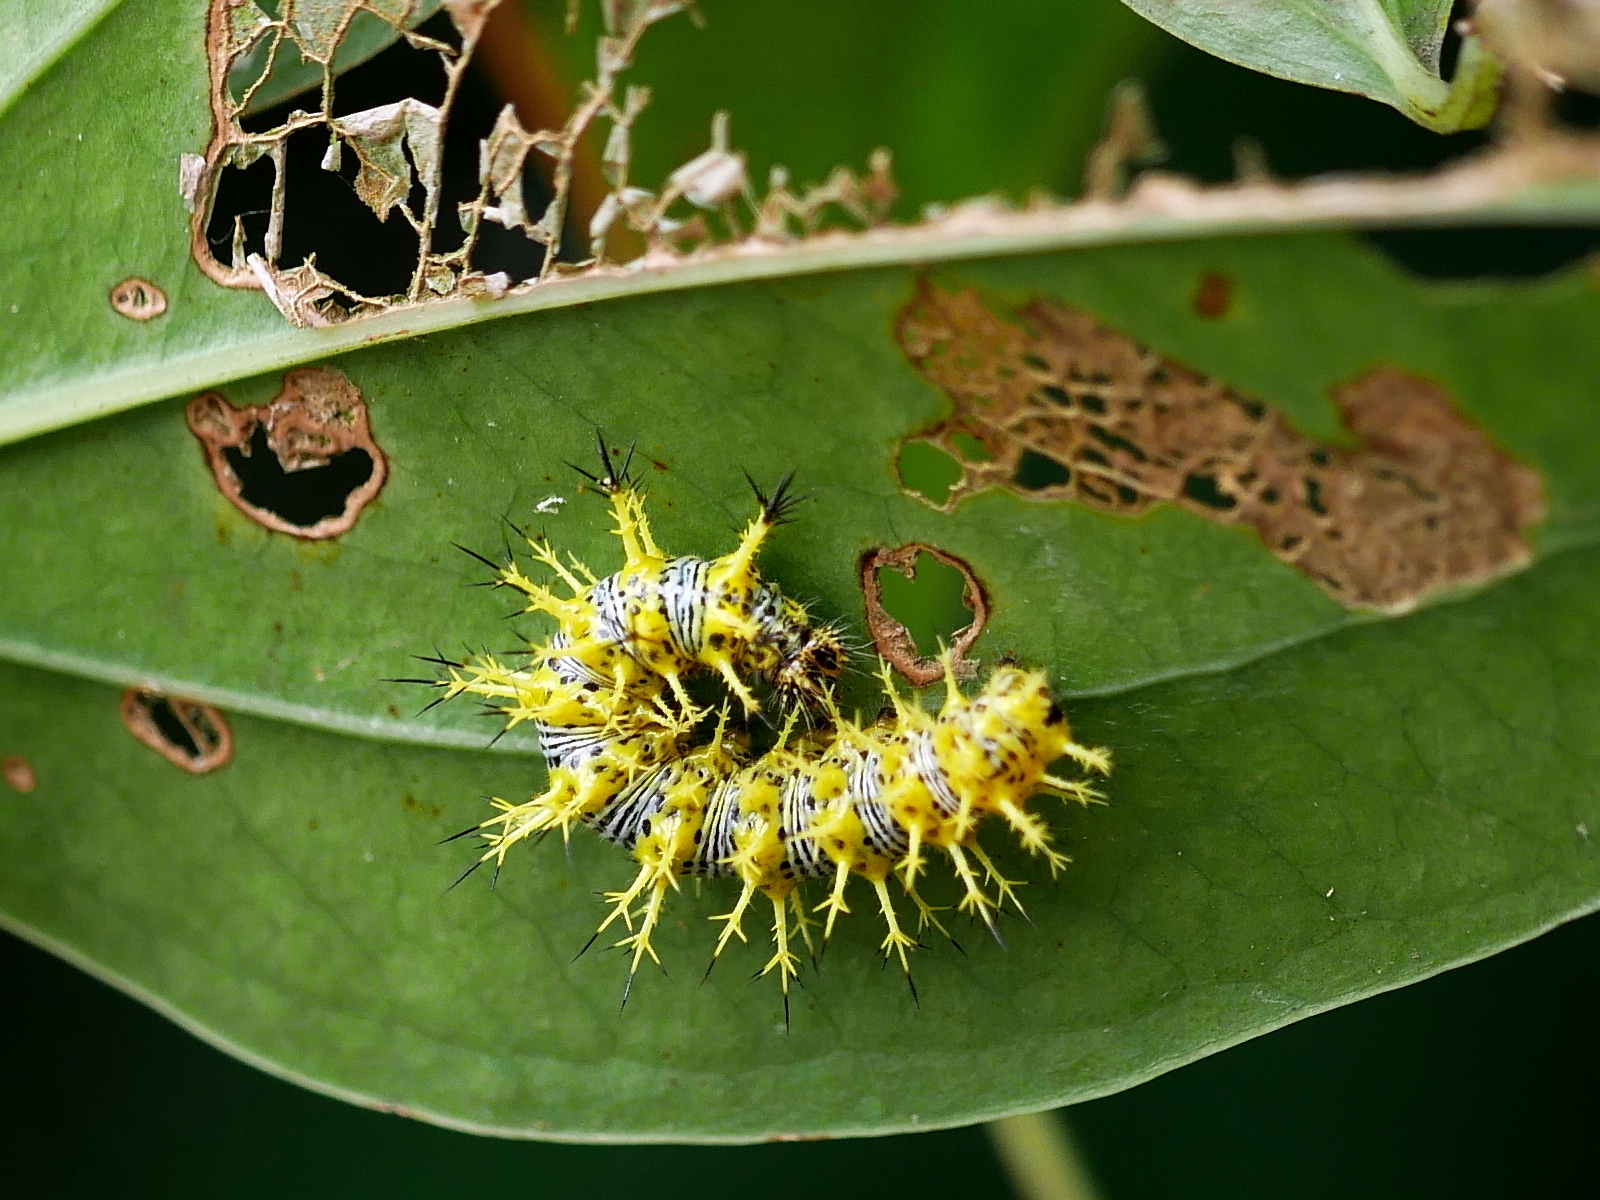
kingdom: Animalia
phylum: Arthropoda
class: Insecta
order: Lepidoptera
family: Nymphalidae
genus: Vanessa
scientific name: Vanessa Kaniska canace
